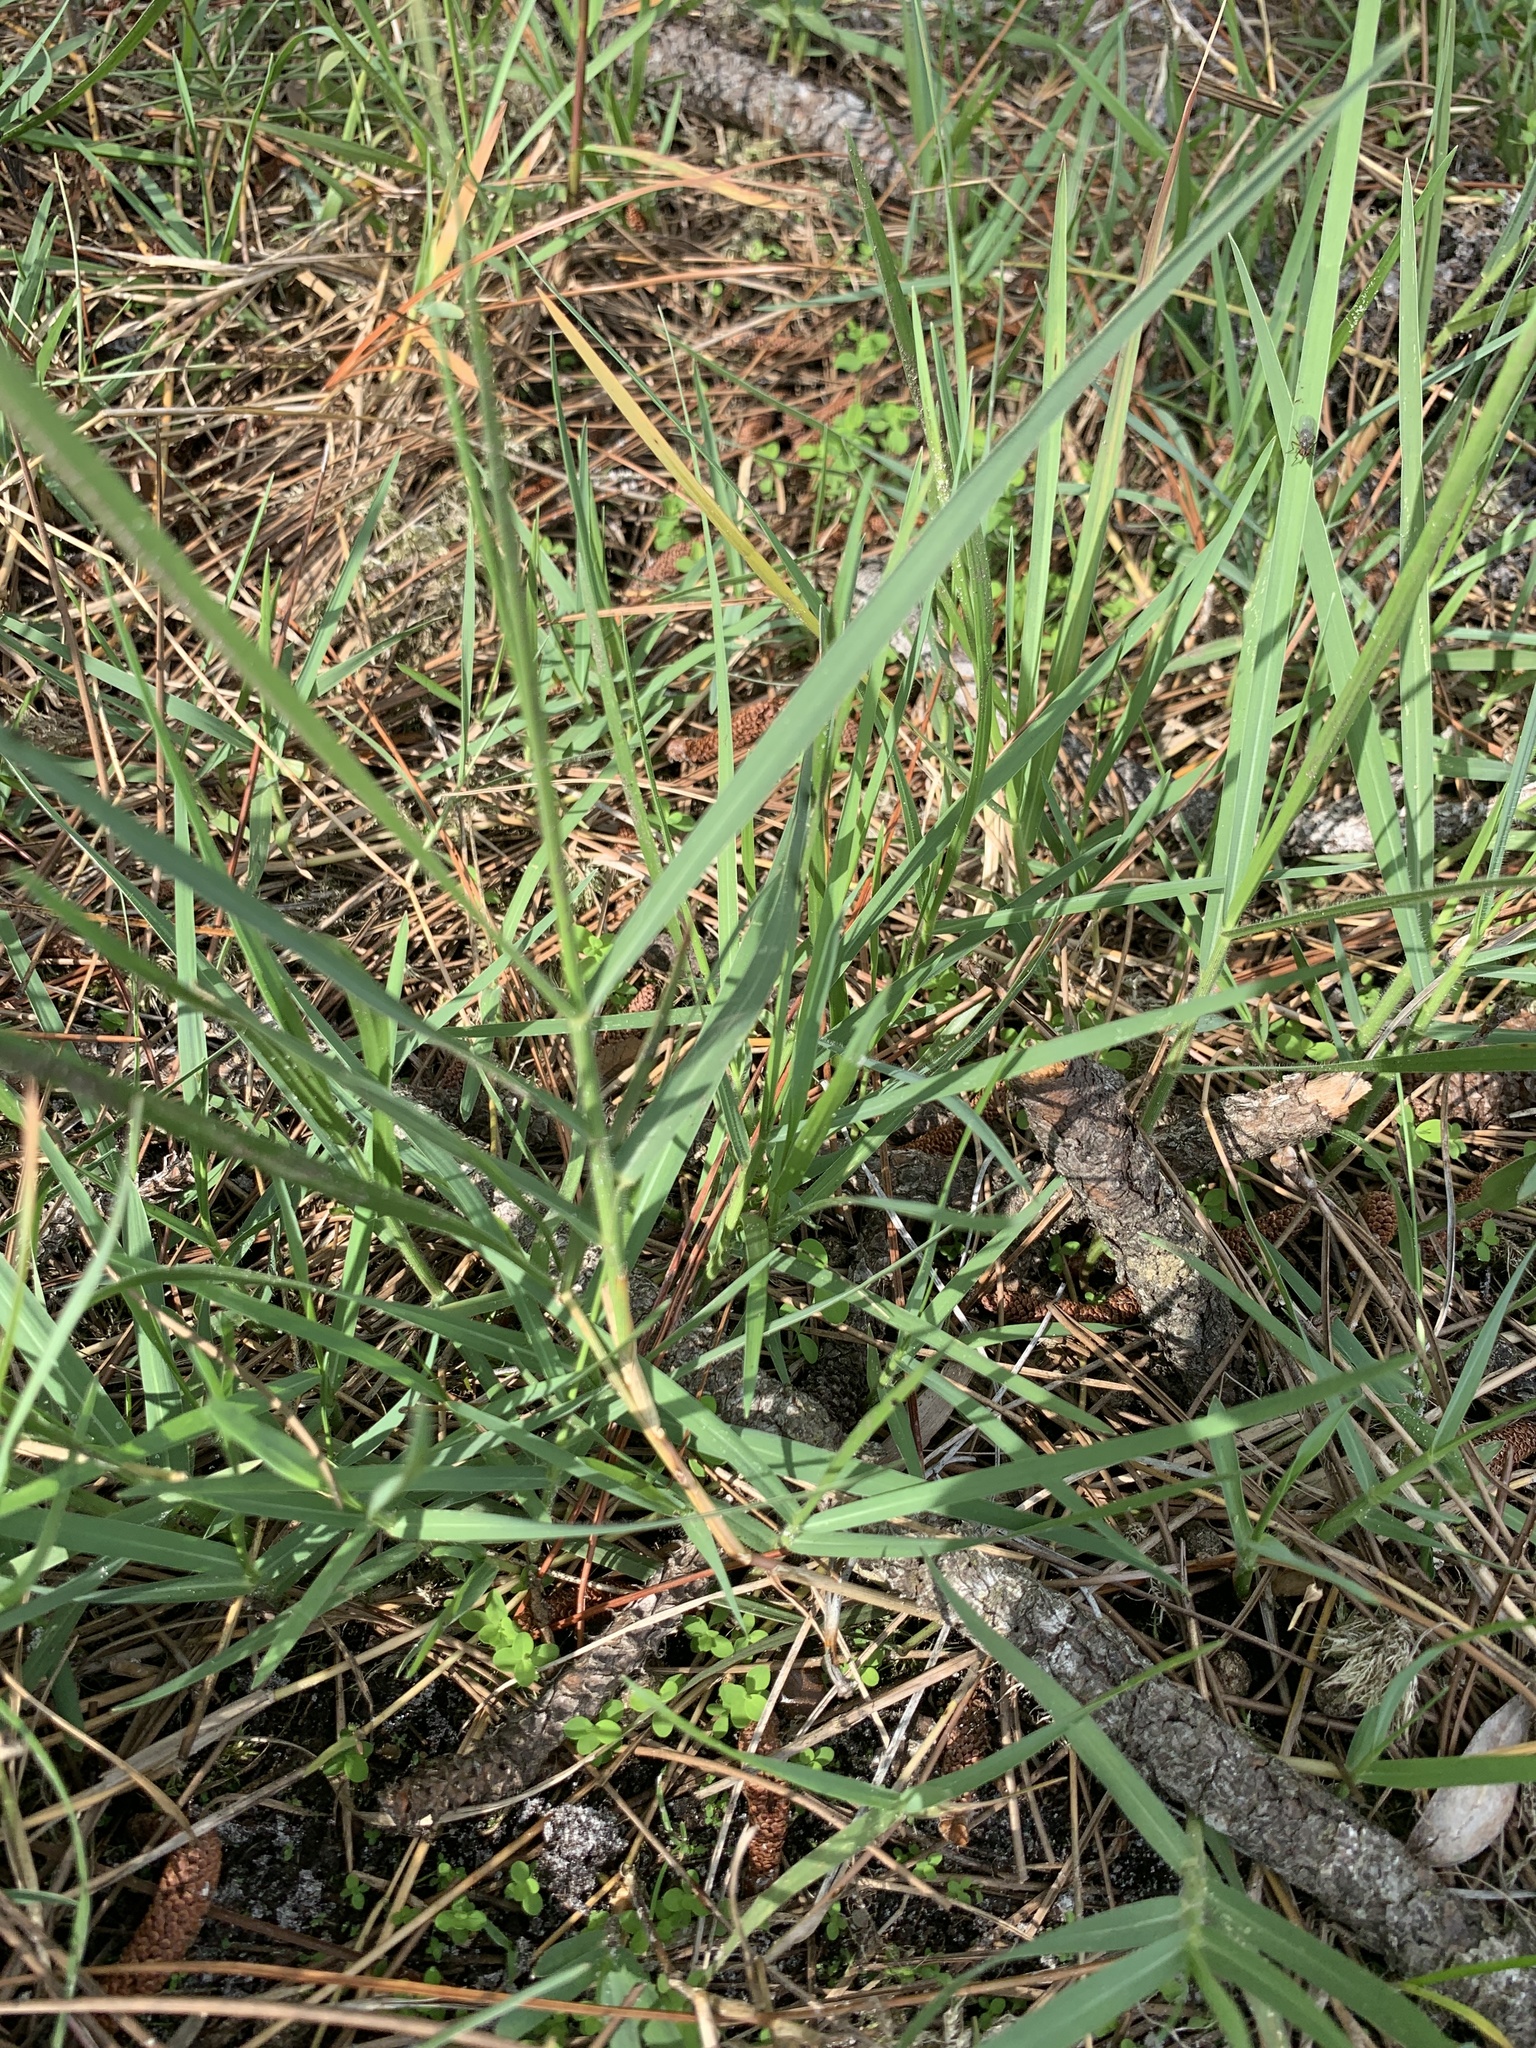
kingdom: Plantae
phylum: Tracheophyta
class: Liliopsida
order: Poales
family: Poaceae
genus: Panicum
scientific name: Panicum repens
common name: Torpedo grass
